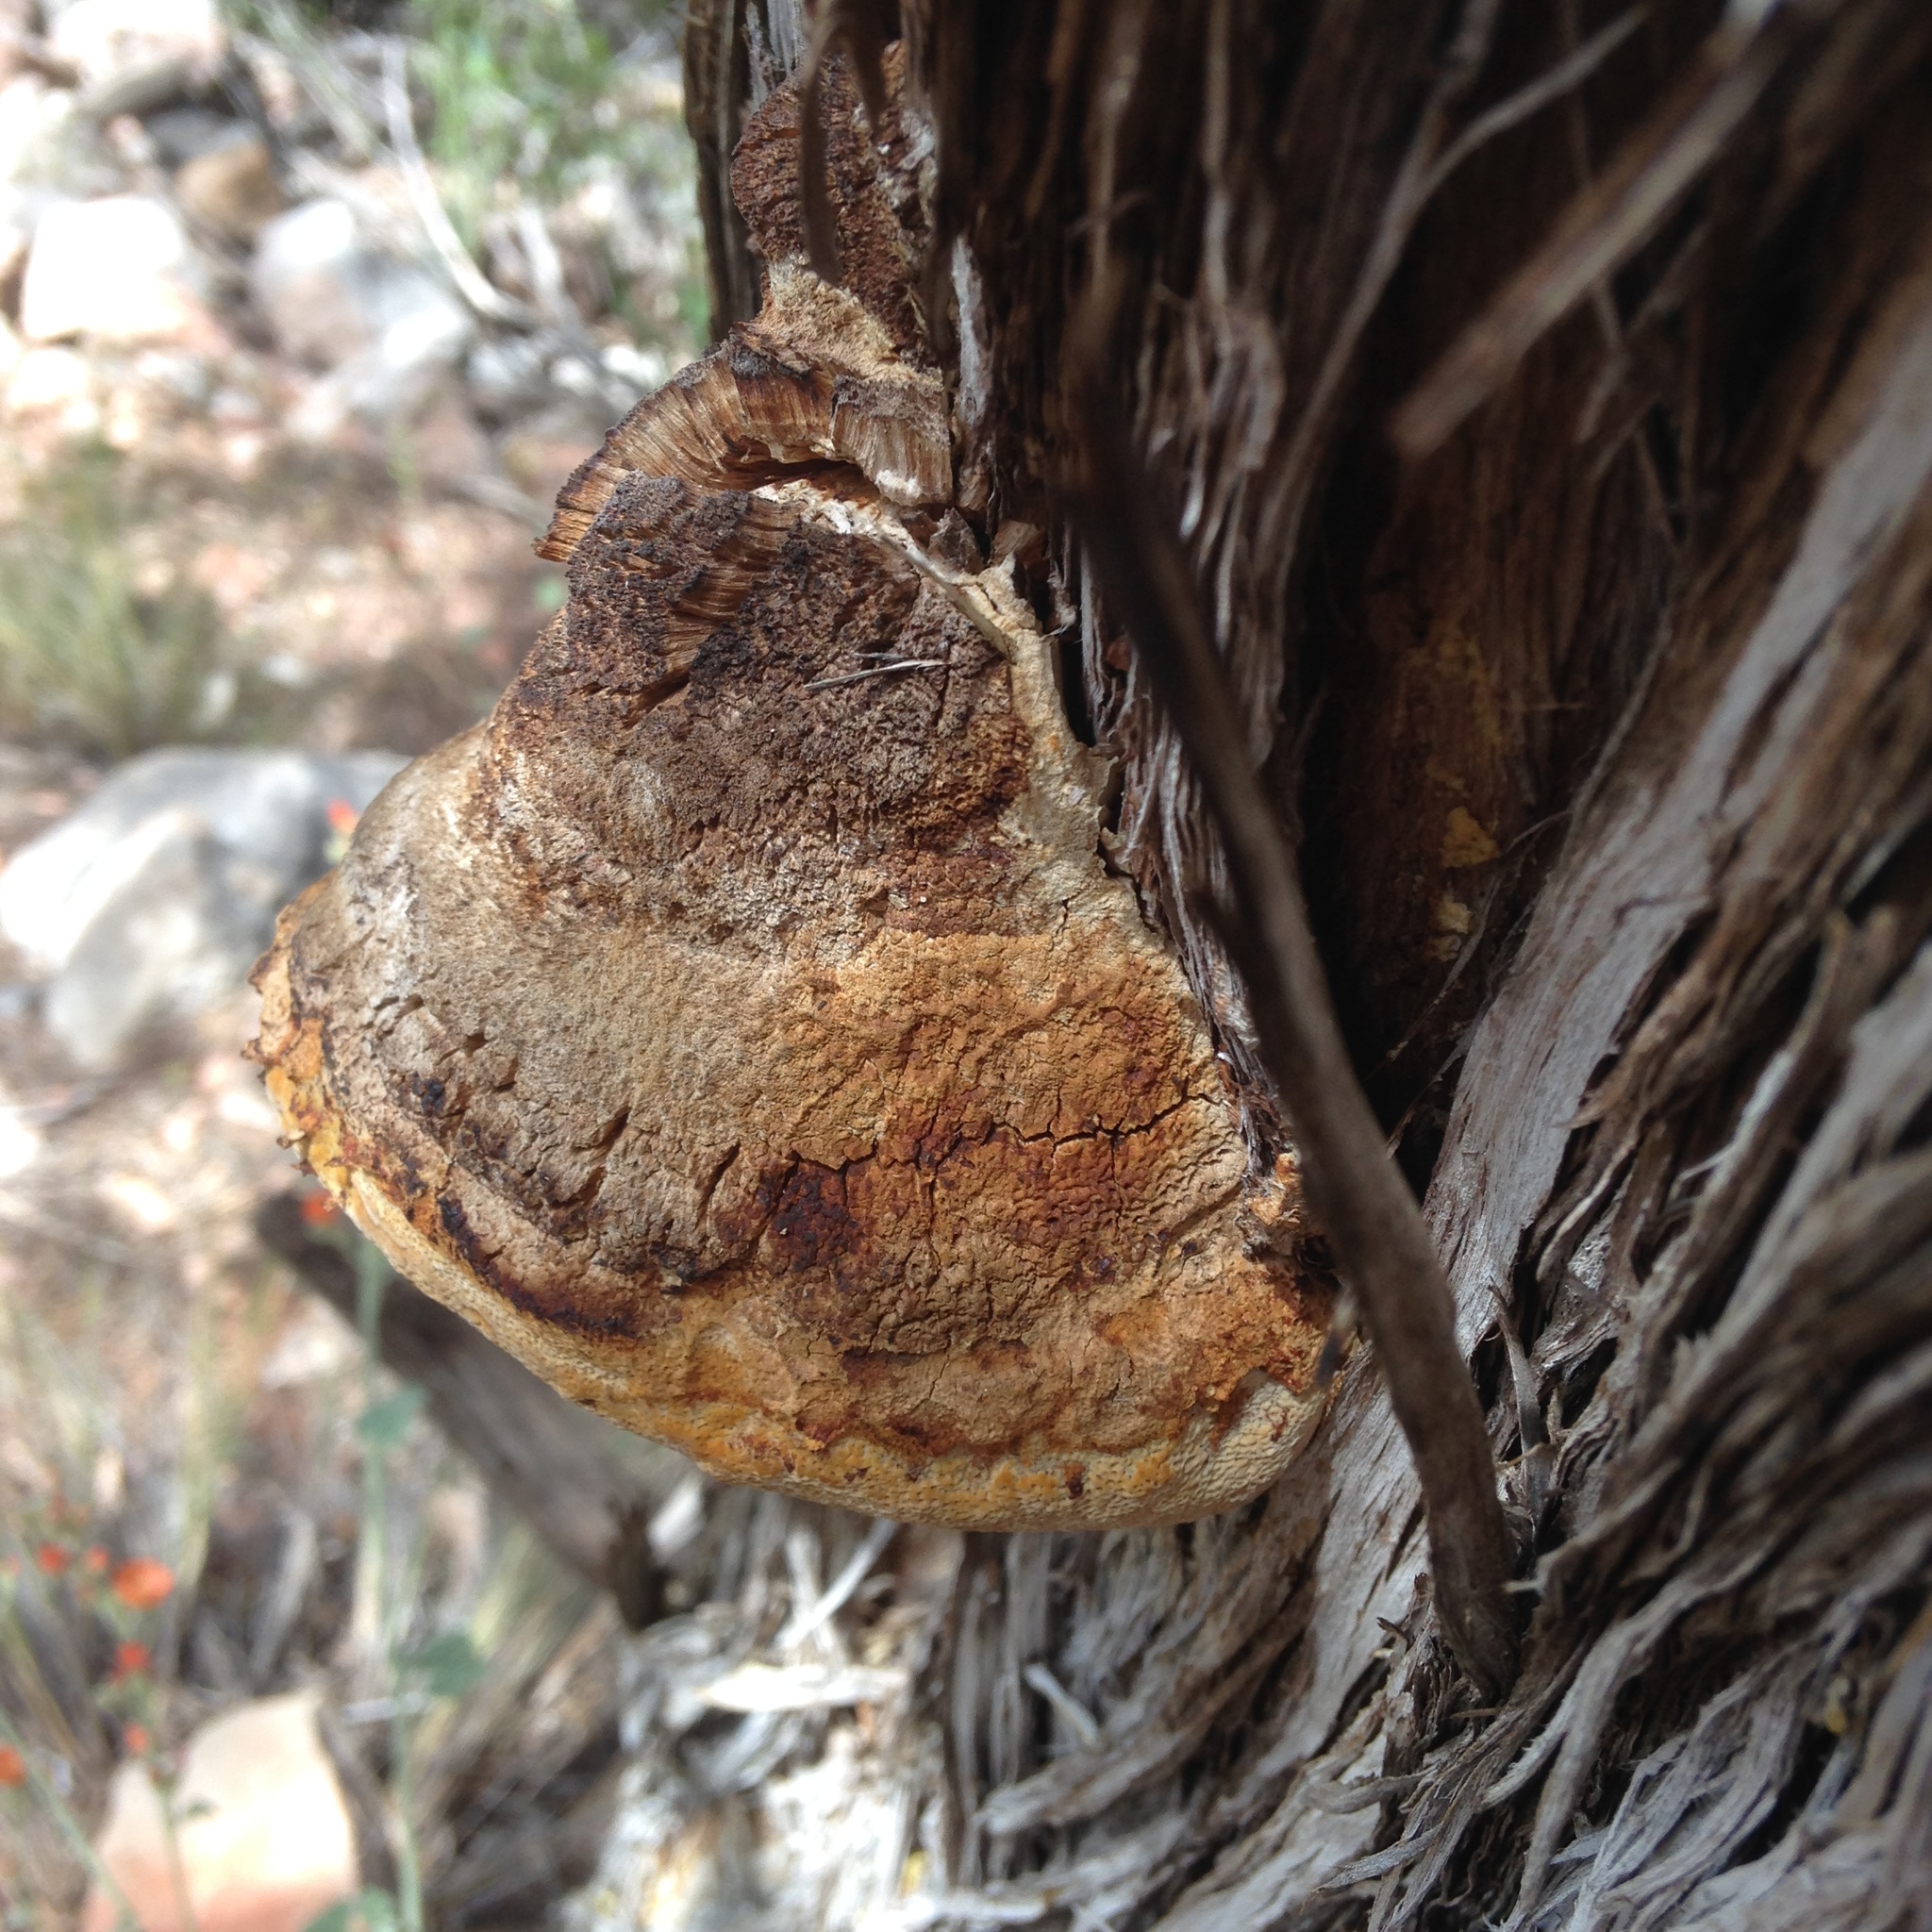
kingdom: Fungi
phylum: Basidiomycota
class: Agaricomycetes
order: Polyporales
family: Polyporaceae
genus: Pyrofomes
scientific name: Pyrofomes juniperinus
